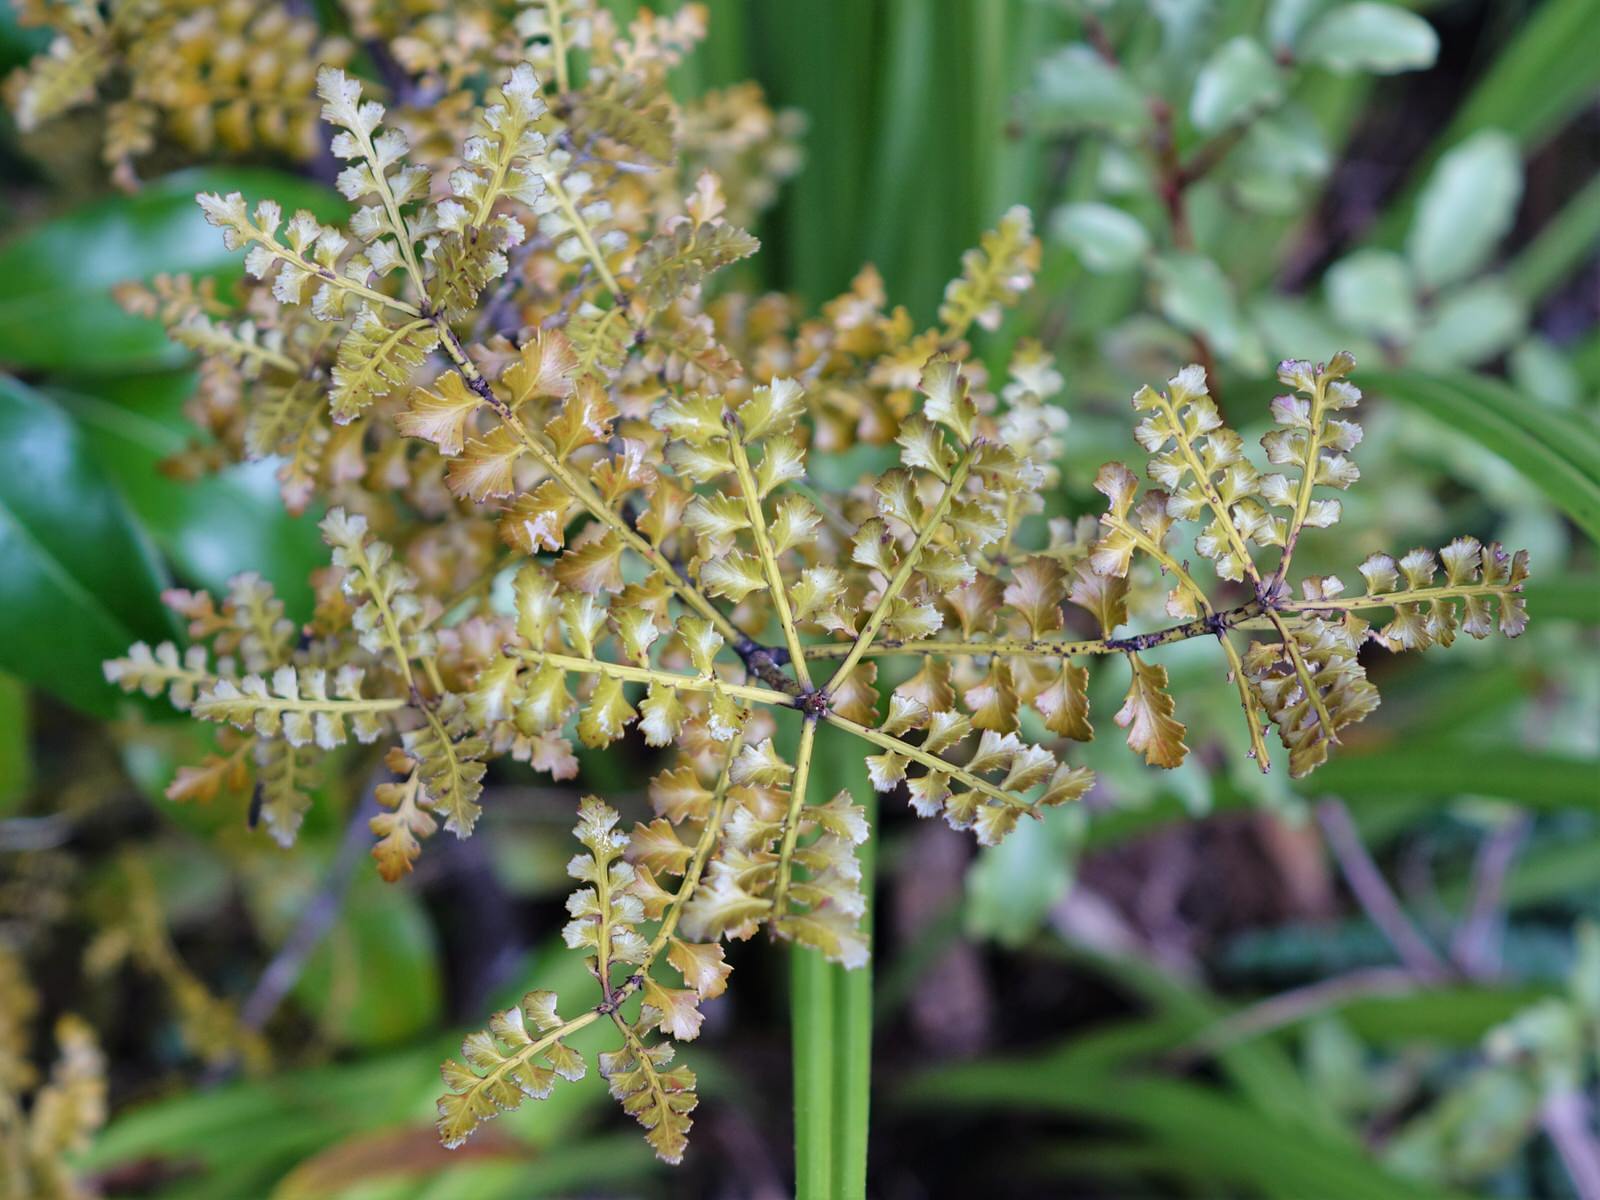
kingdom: Plantae
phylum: Tracheophyta
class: Pinopsida
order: Pinales
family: Phyllocladaceae
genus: Phyllocladus
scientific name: Phyllocladus trichomanoides
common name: Celery pine
